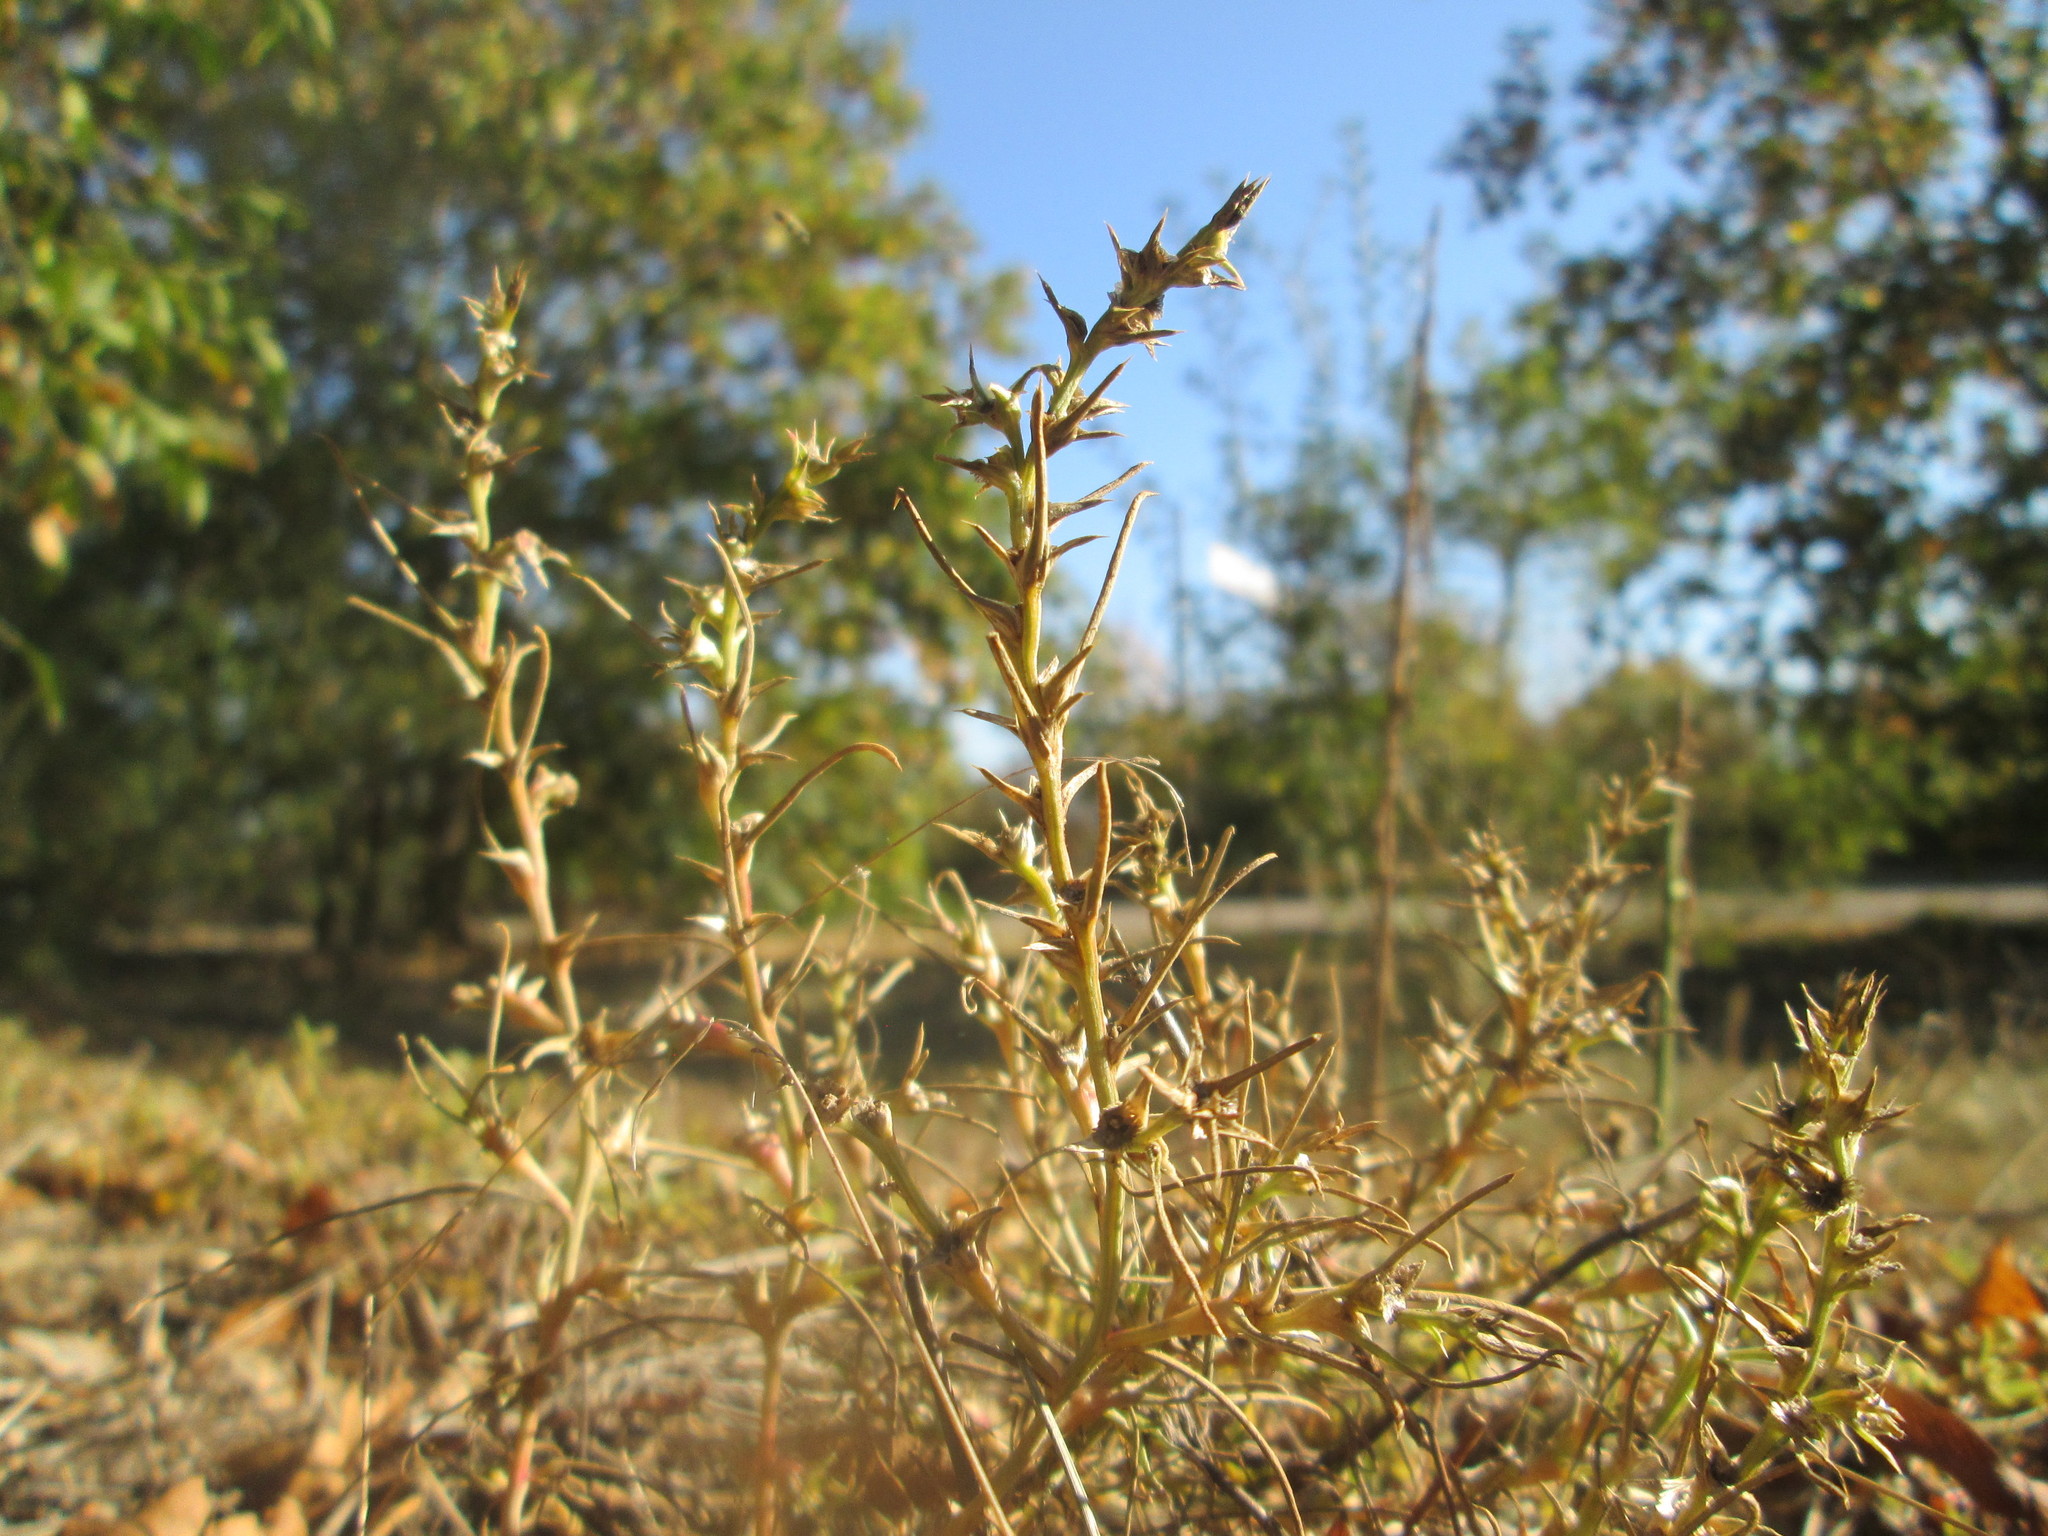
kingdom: Plantae
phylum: Tracheophyta
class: Magnoliopsida
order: Caryophyllales
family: Amaranthaceae
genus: Salsola
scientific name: Salsola tragus
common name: Prickly russian thistle
